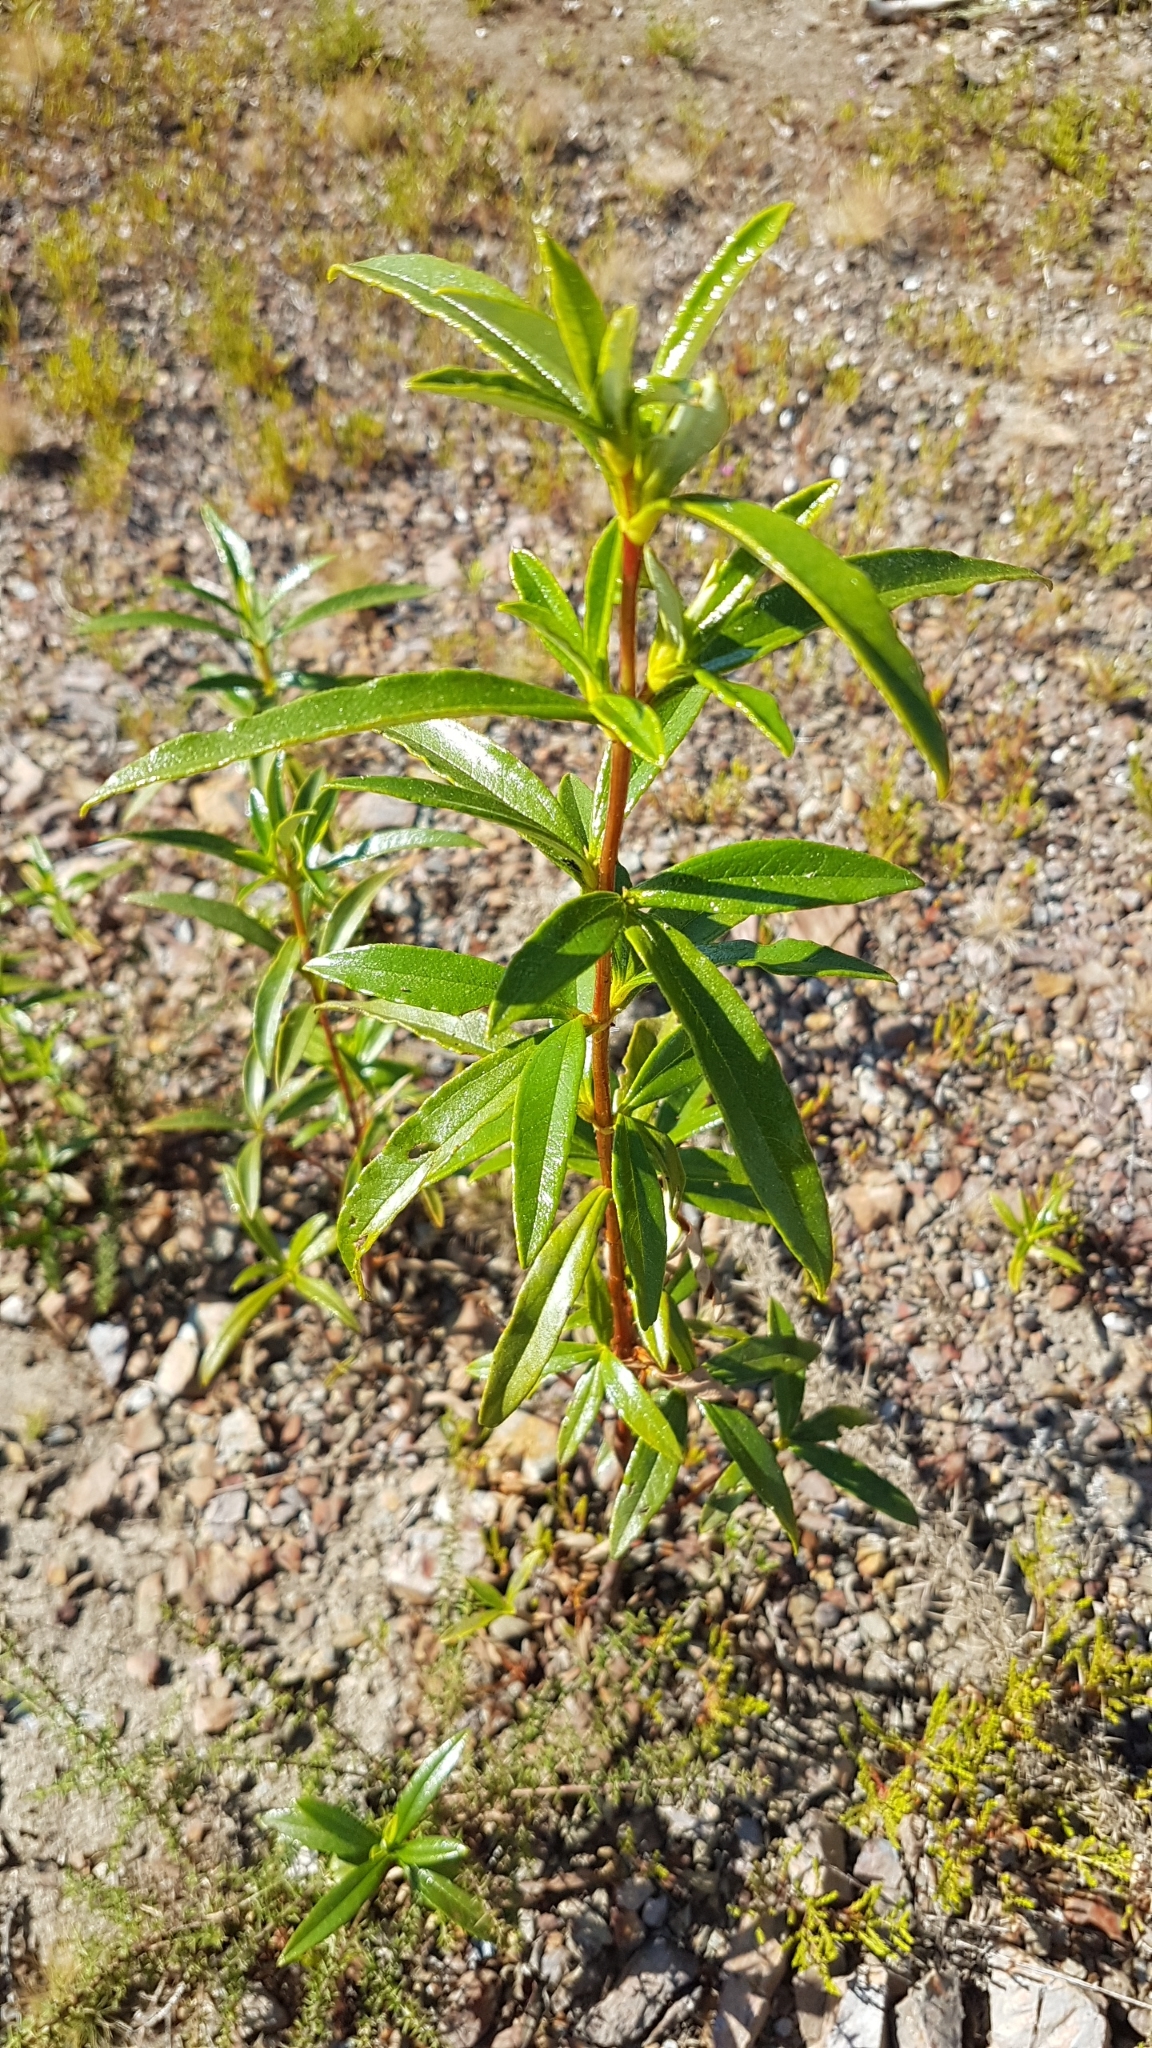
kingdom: Plantae
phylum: Tracheophyta
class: Magnoliopsida
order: Malvales
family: Cistaceae
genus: Cistus
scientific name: Cistus ladanifer
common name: Common gum cistus
